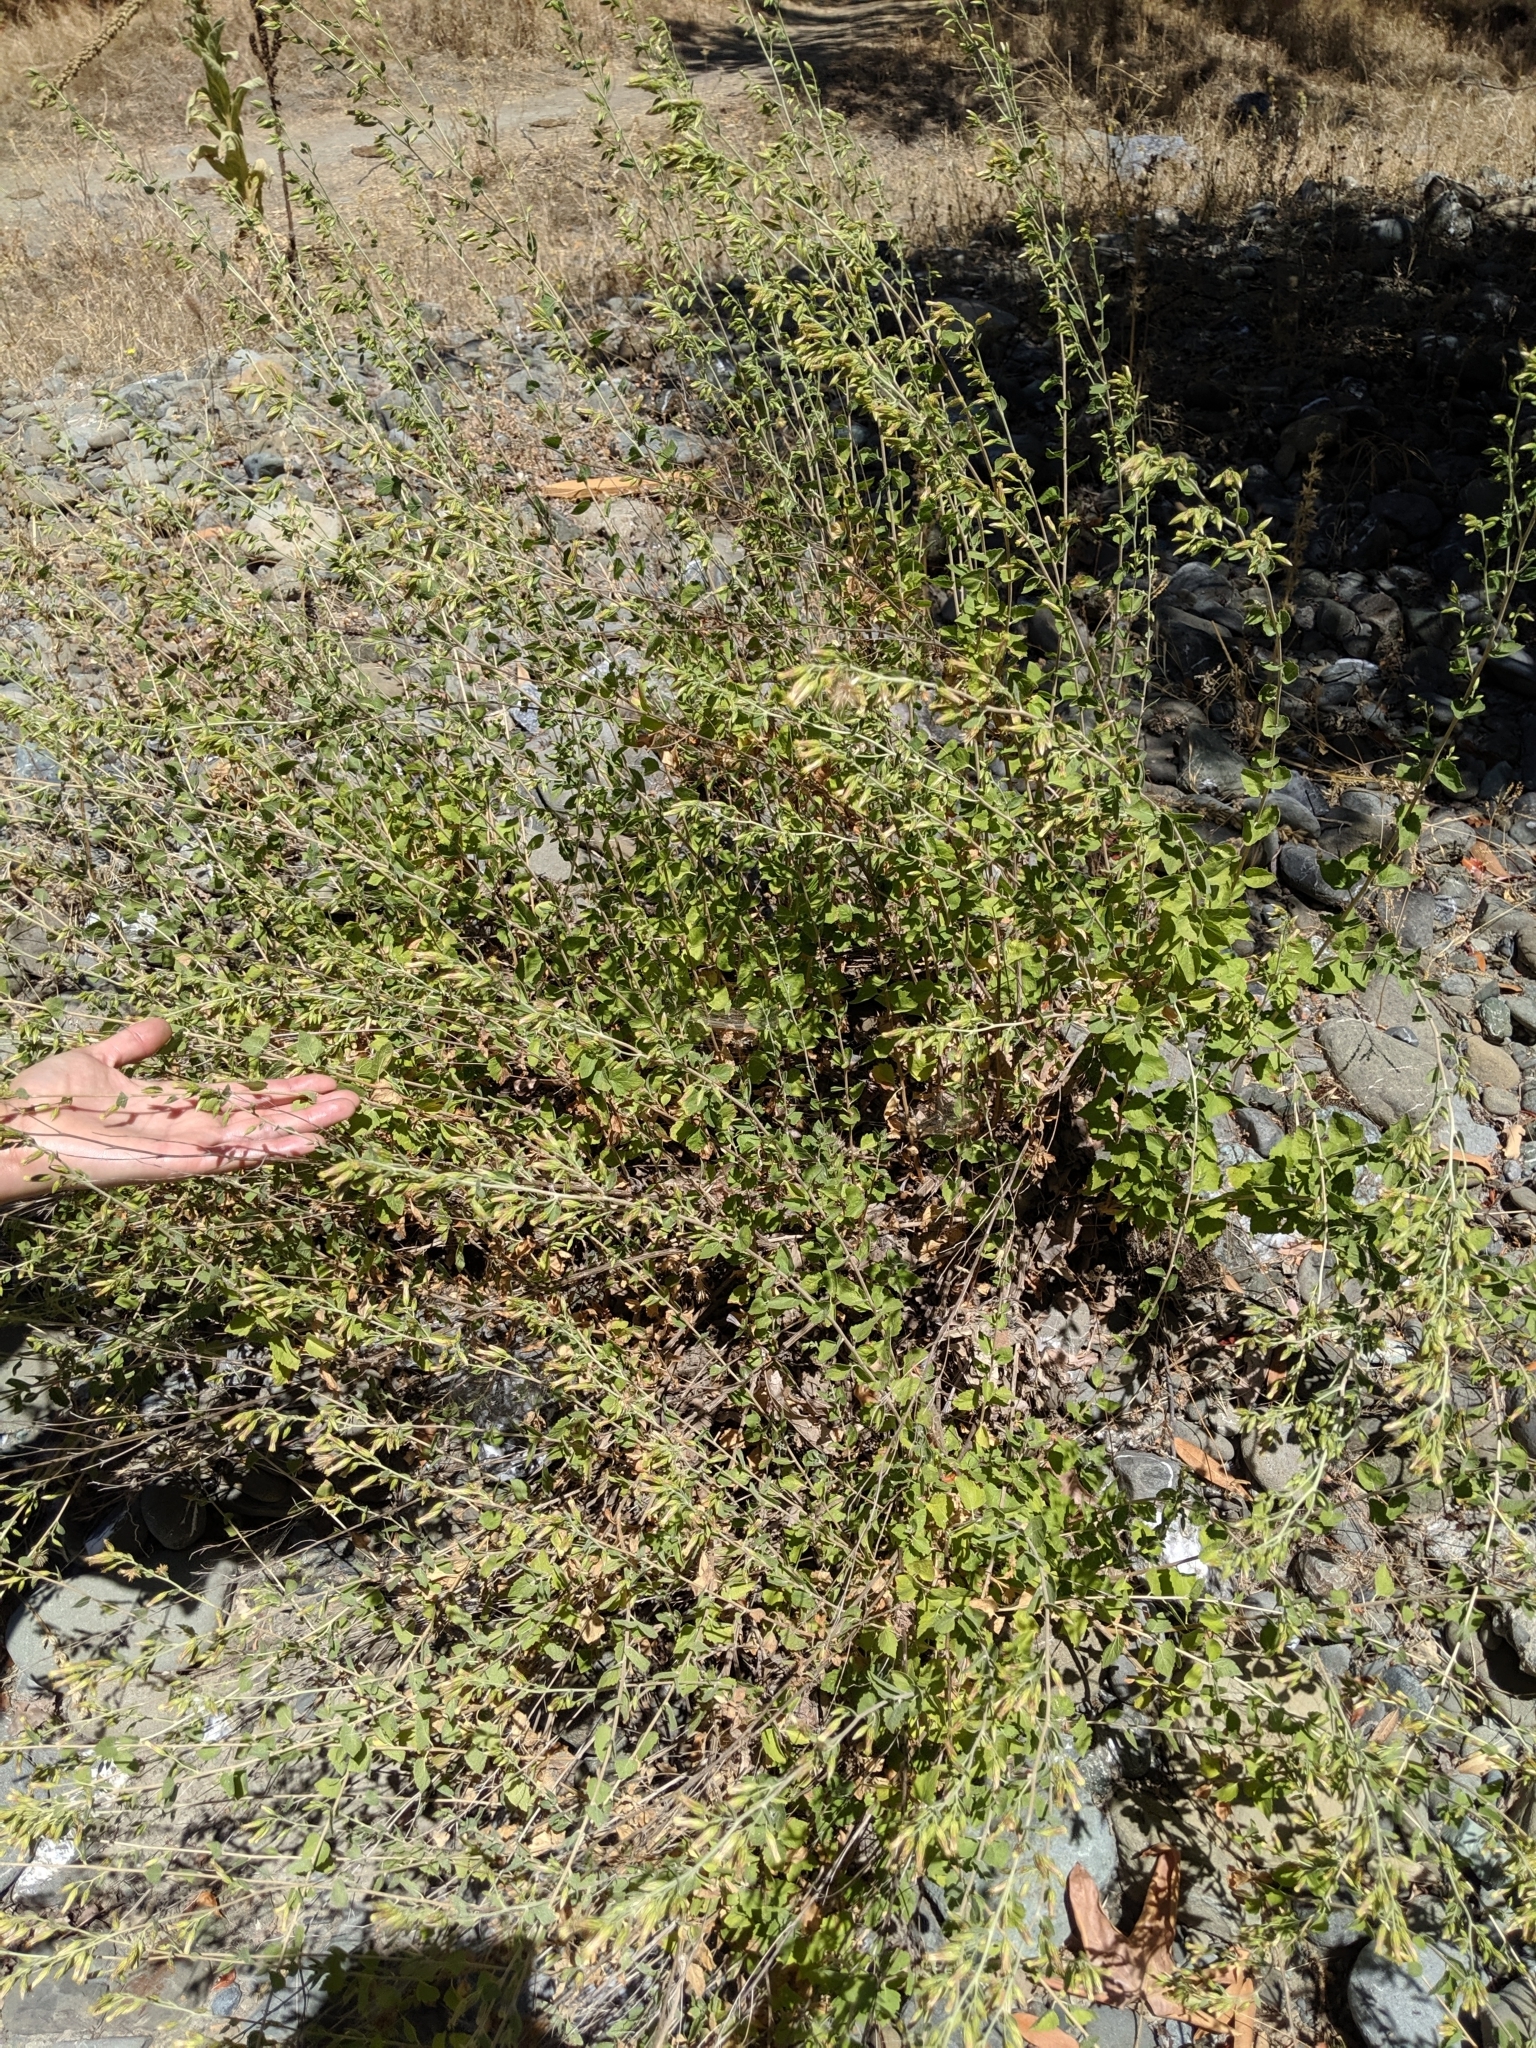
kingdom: Plantae
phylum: Tracheophyta
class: Magnoliopsida
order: Asterales
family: Asteraceae
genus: Brickellia
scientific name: Brickellia californica
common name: California brickellbush
